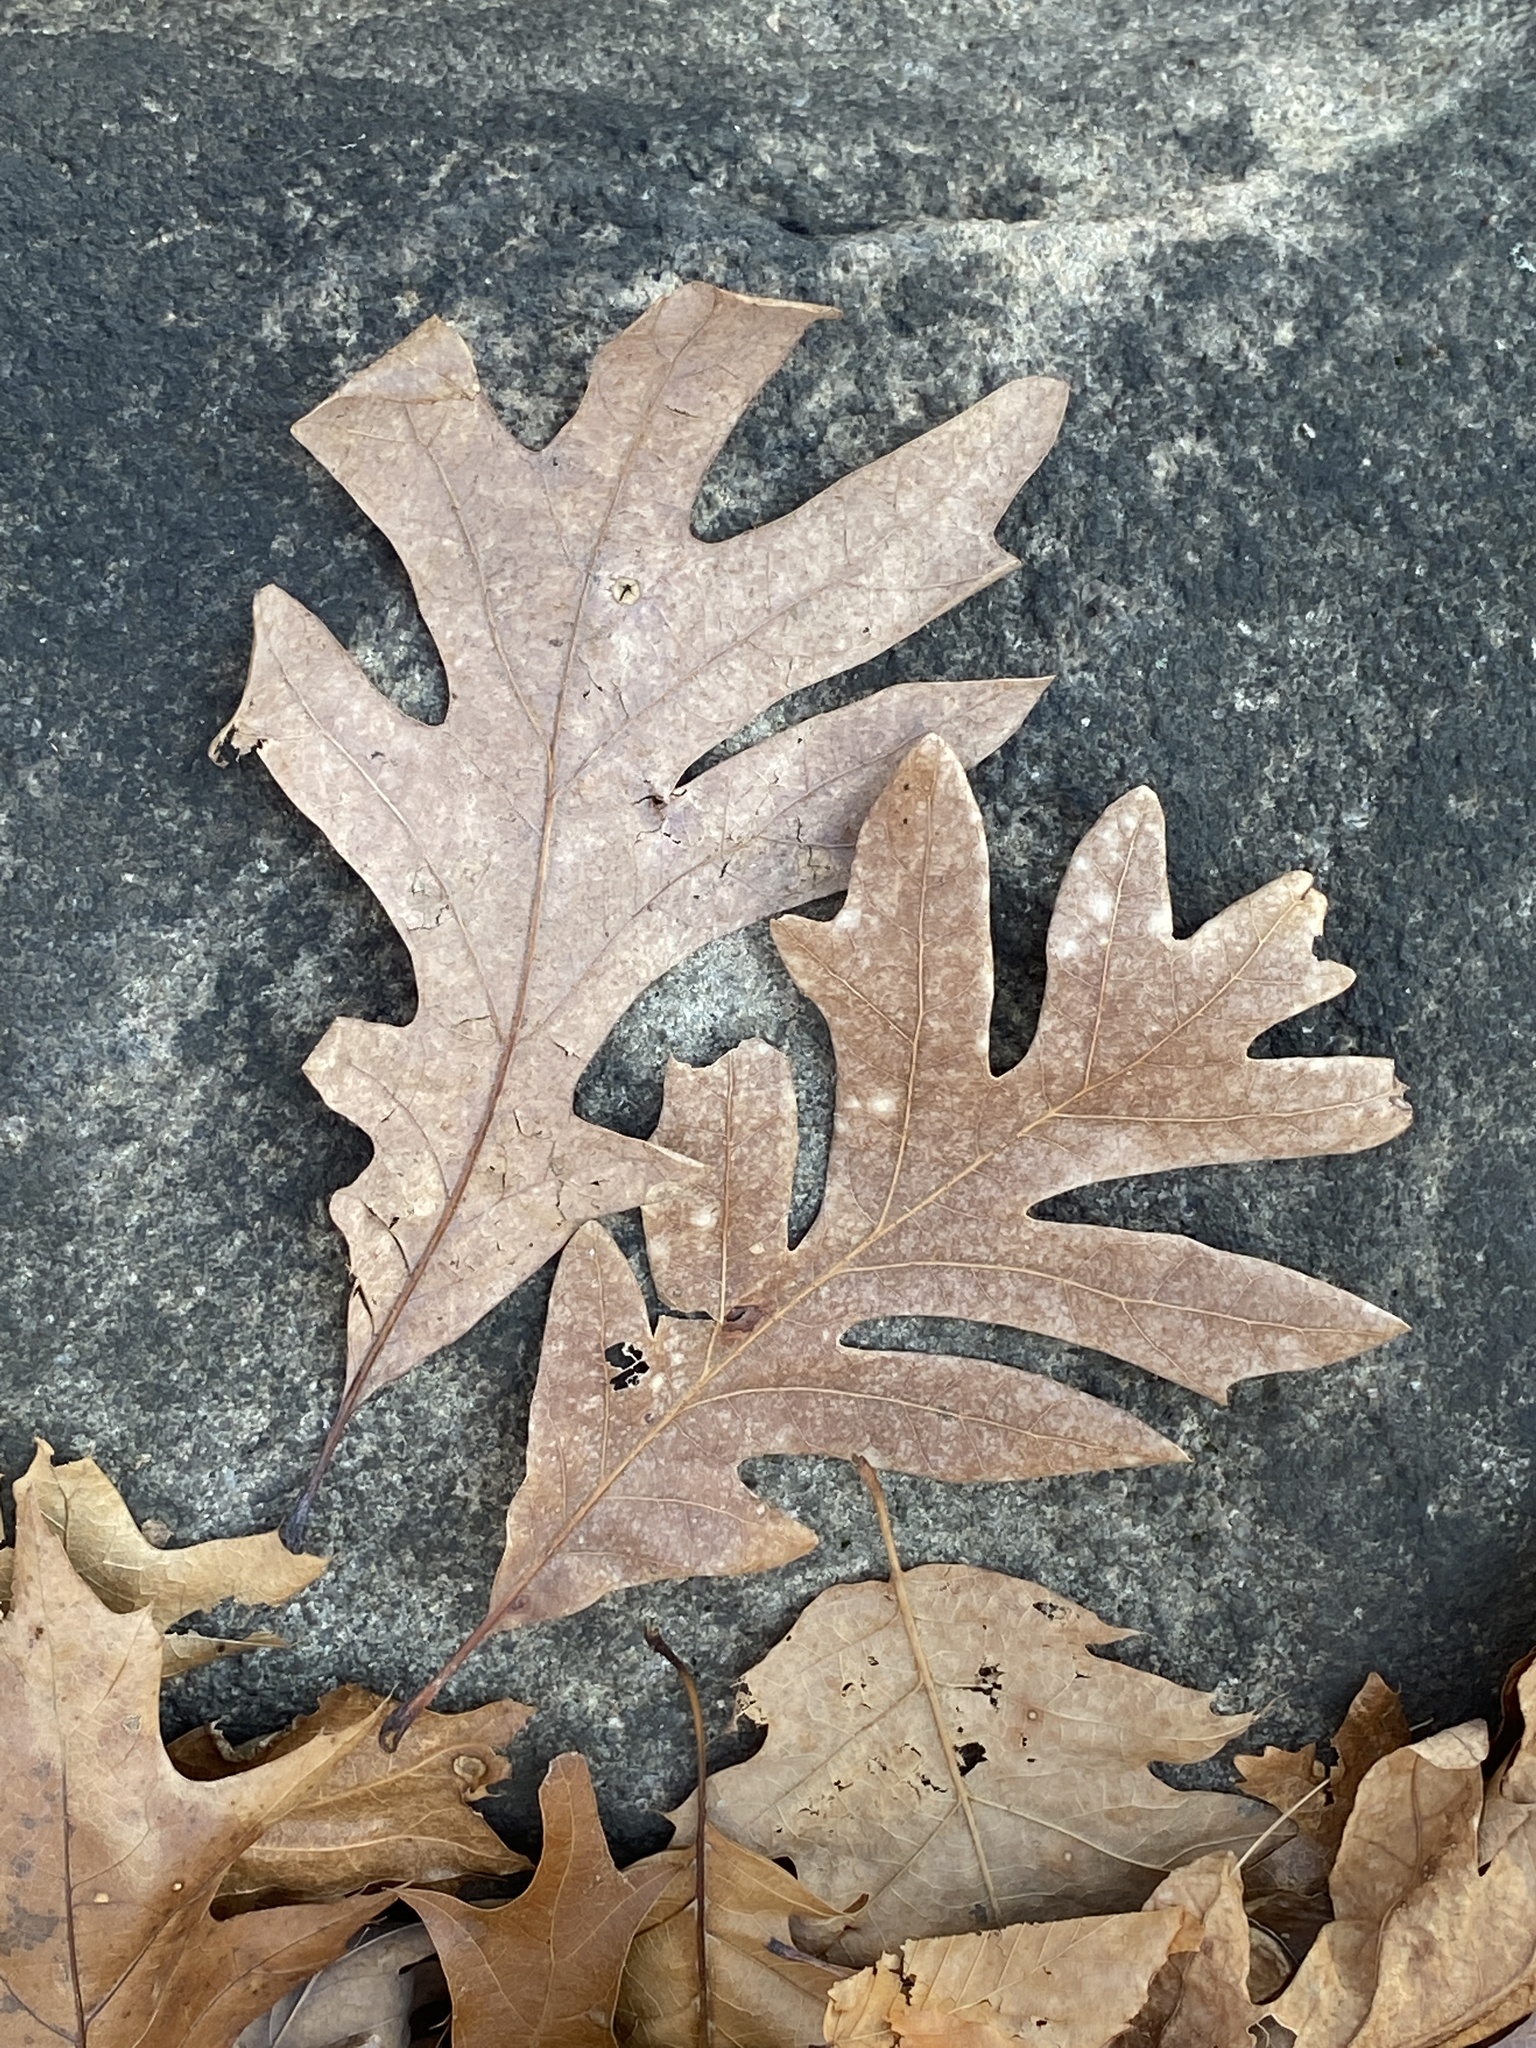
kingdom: Plantae
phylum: Tracheophyta
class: Magnoliopsida
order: Fagales
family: Fagaceae
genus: Quercus
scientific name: Quercus alba
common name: White oak
